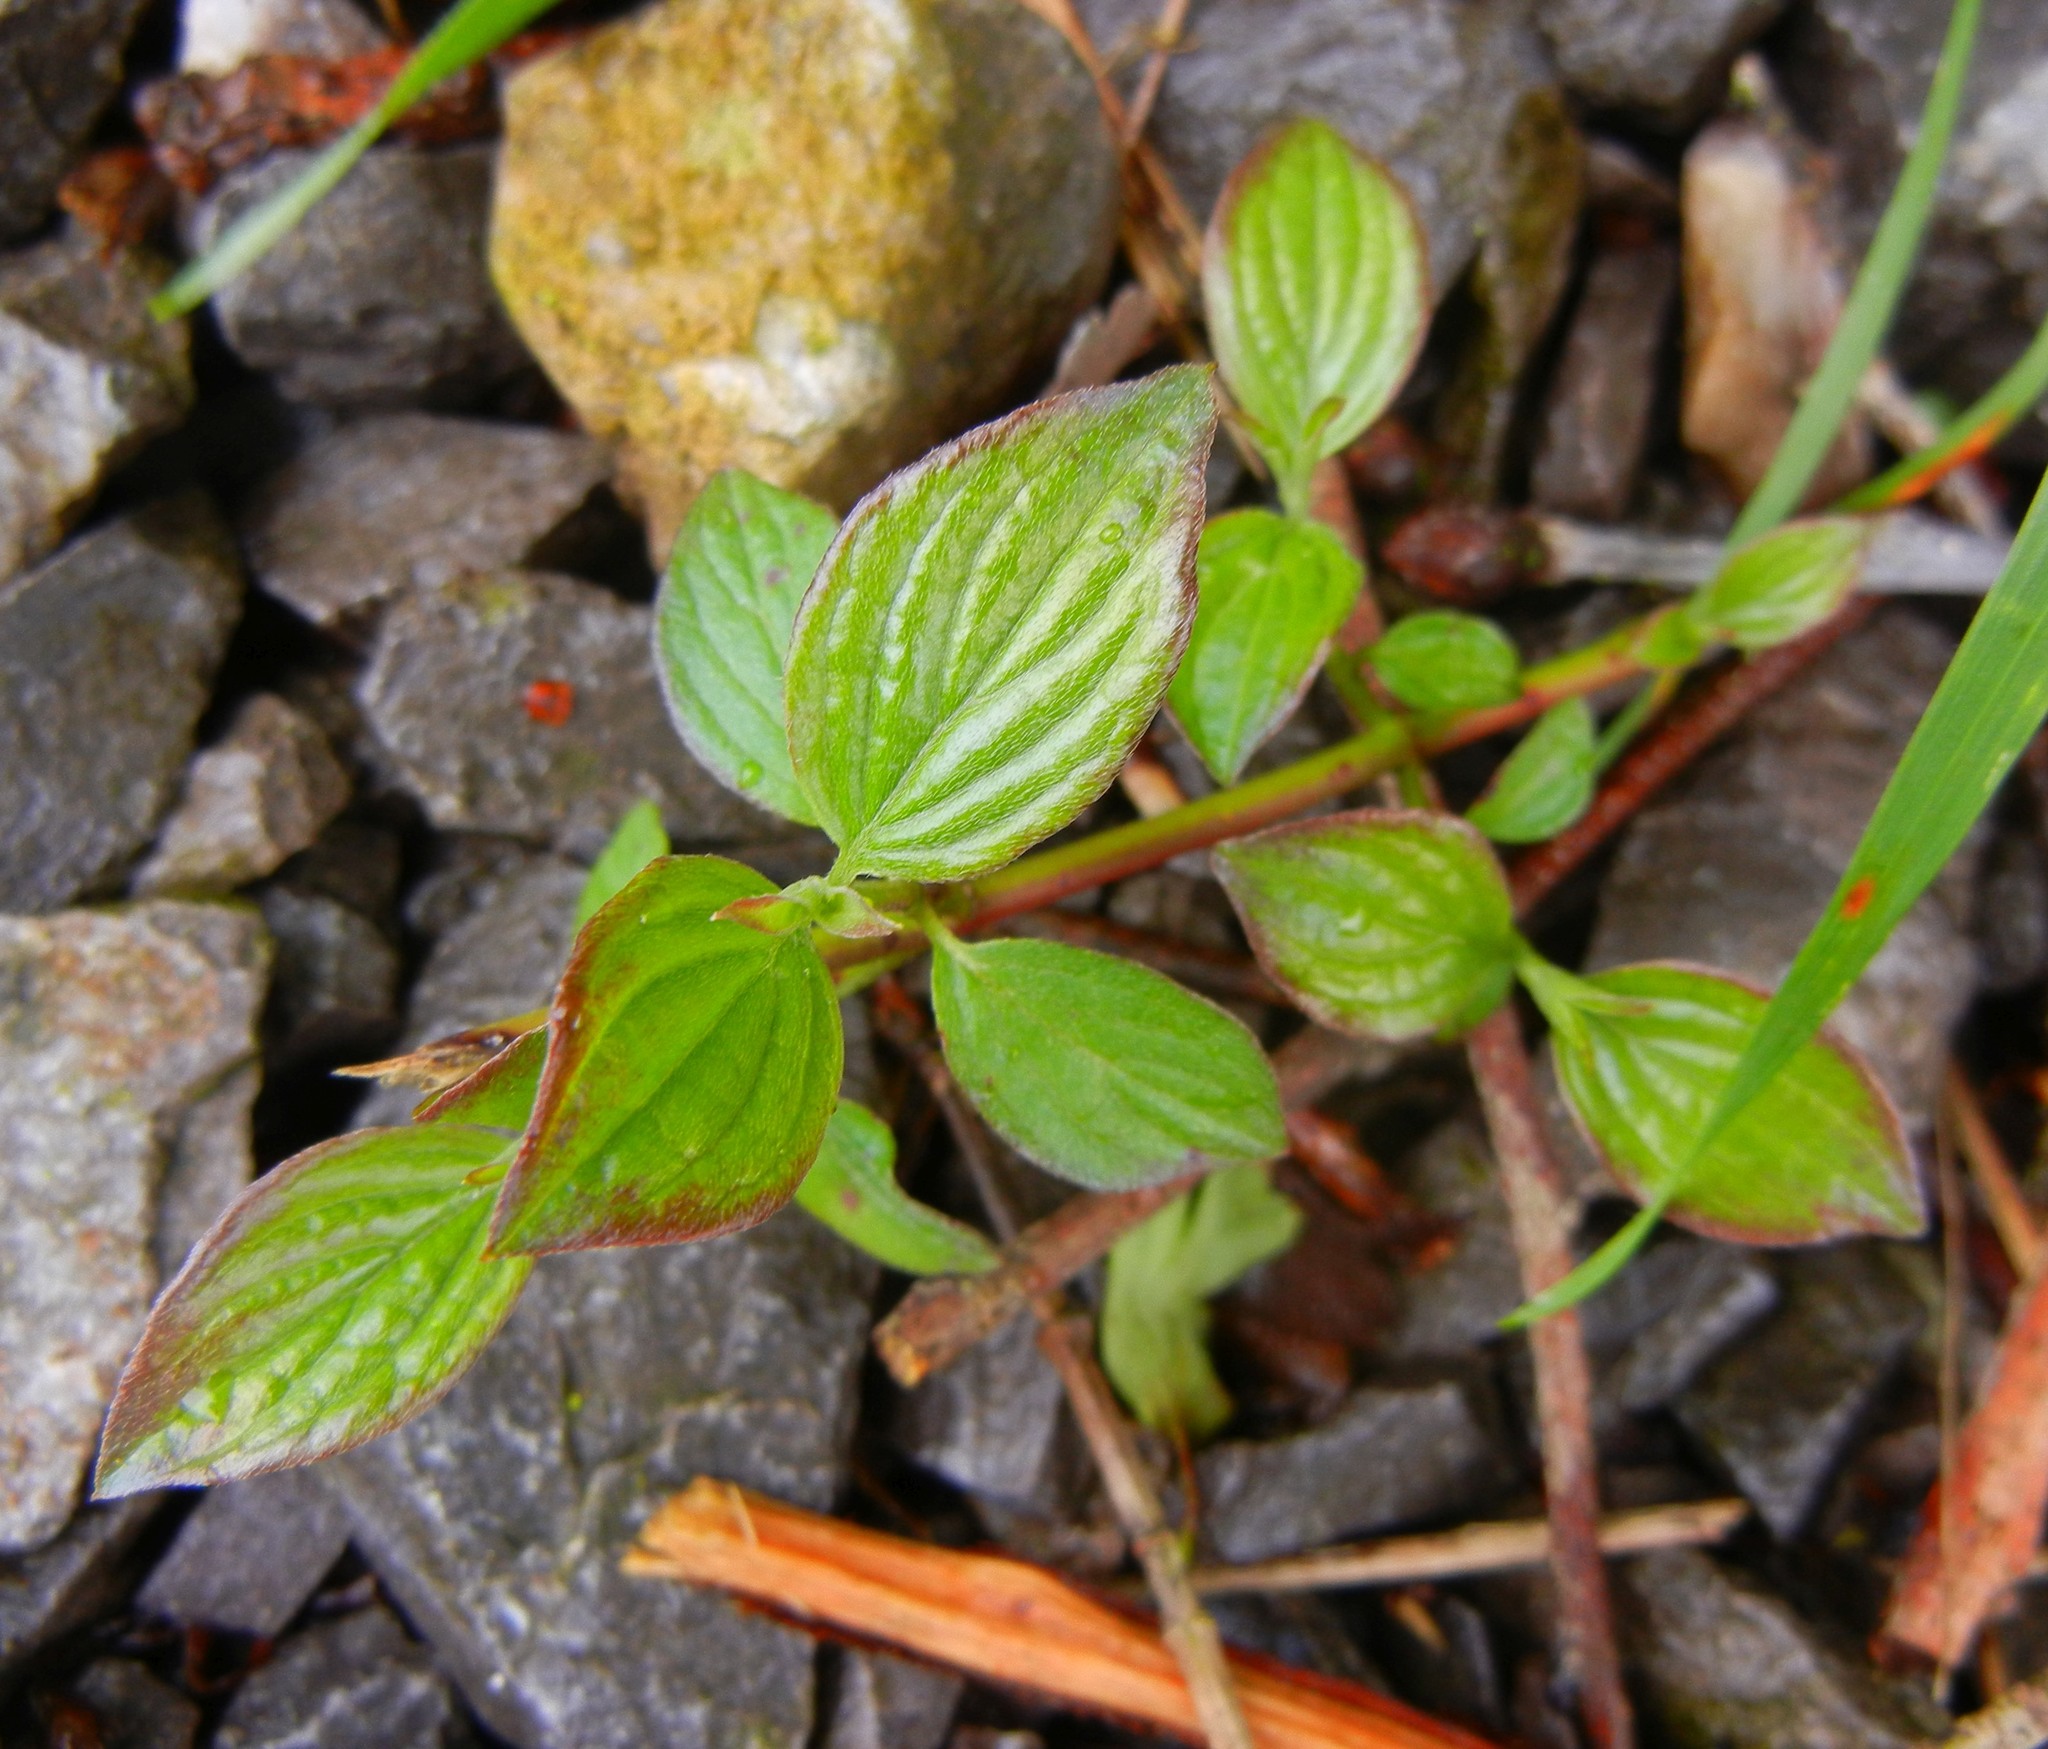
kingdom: Plantae
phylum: Tracheophyta
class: Magnoliopsida
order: Cornales
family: Cornaceae
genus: Cornus
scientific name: Cornus sanguinea
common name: Dogwood
